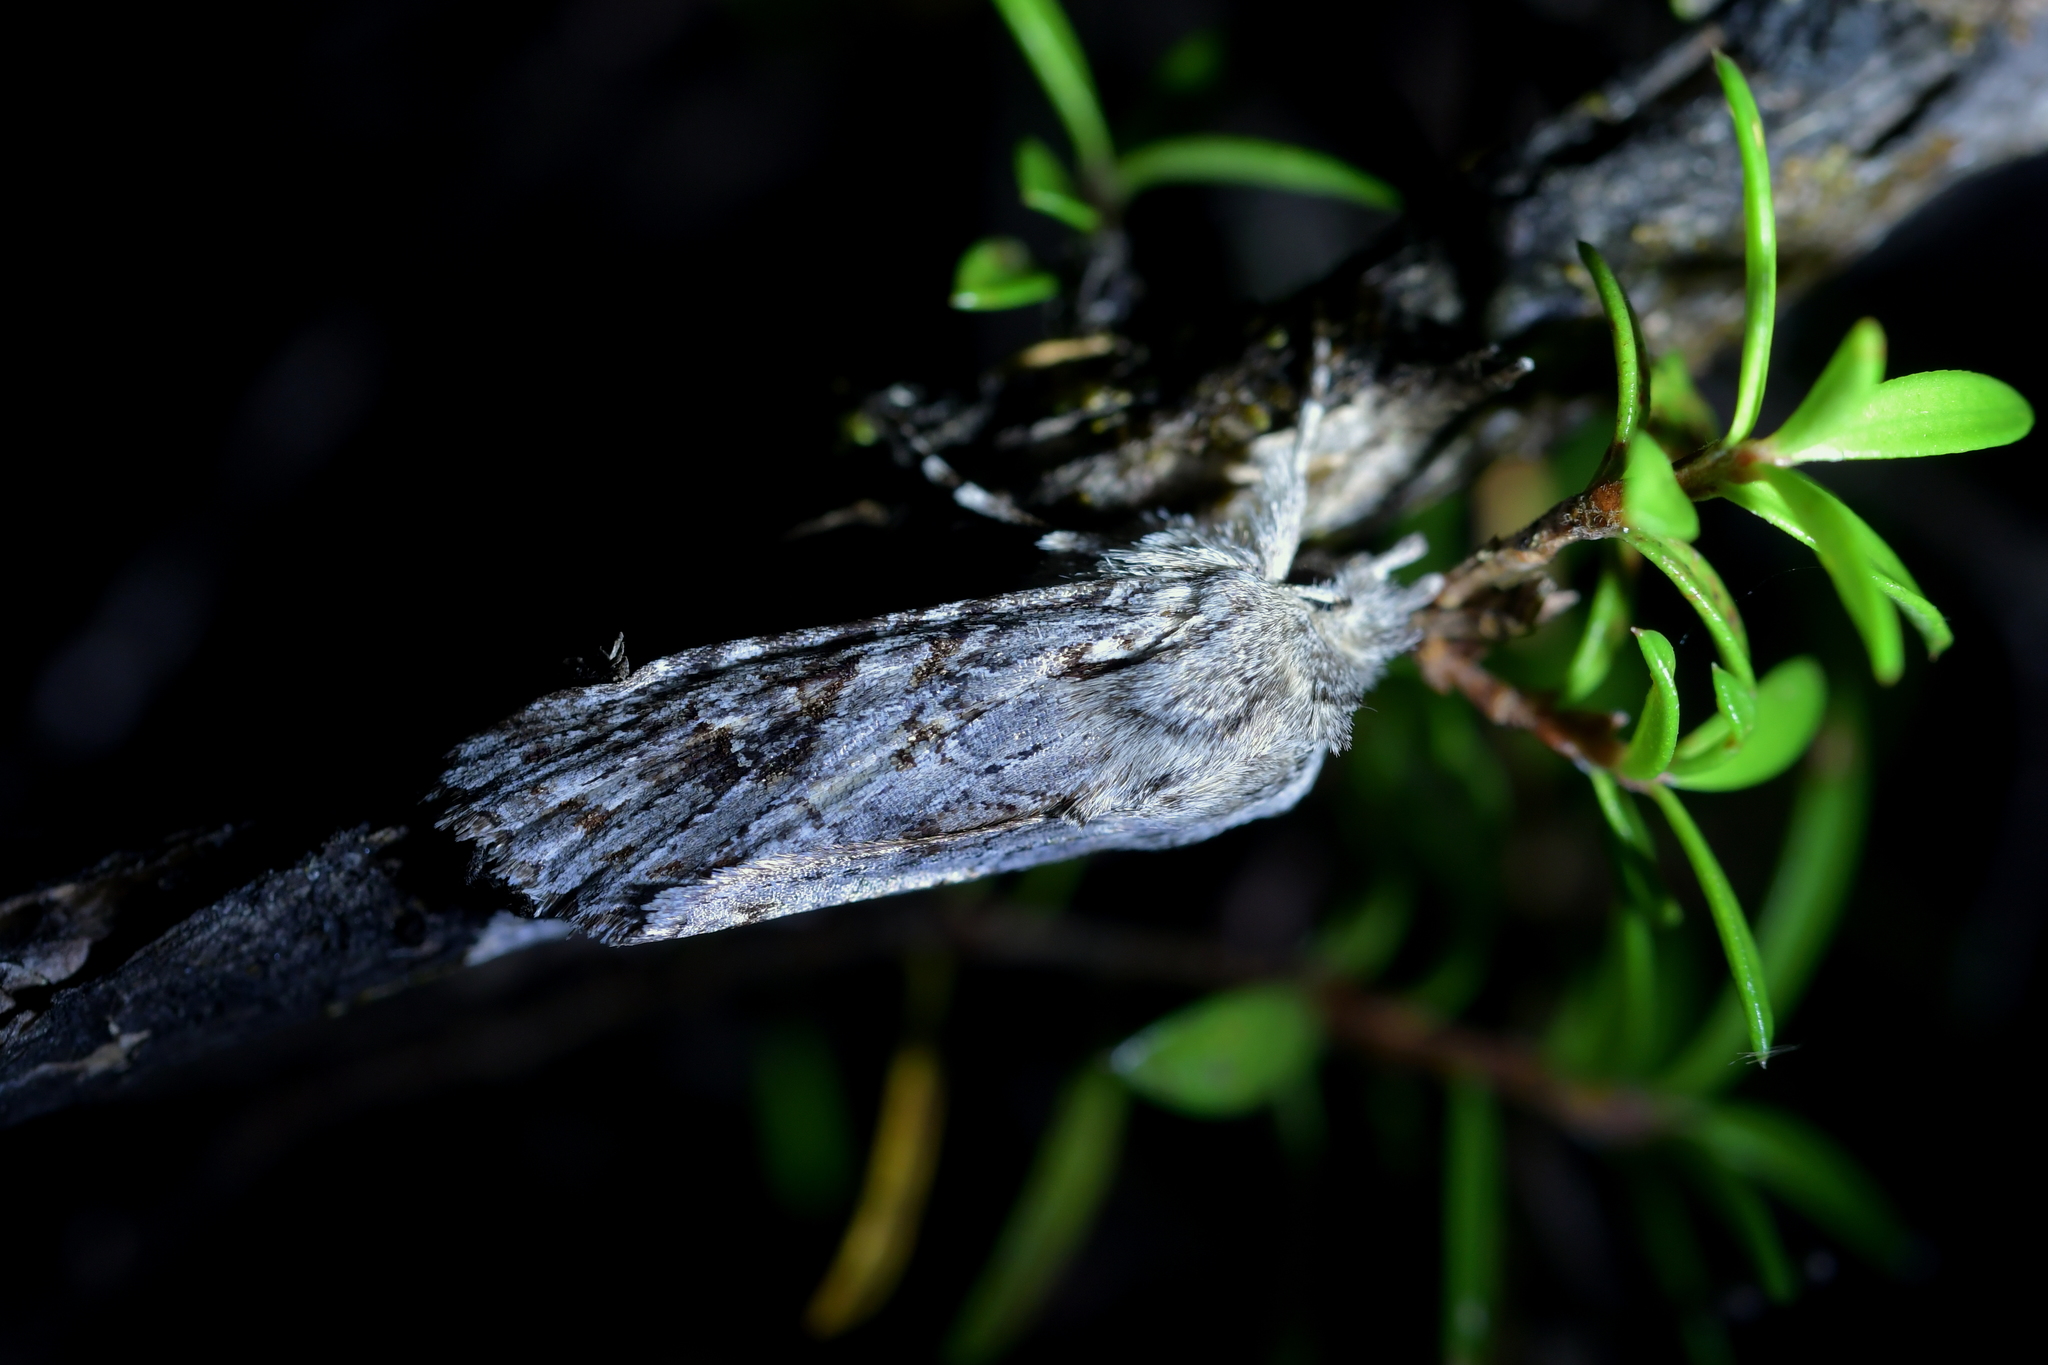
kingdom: Animalia
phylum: Arthropoda
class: Insecta
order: Lepidoptera
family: Noctuidae
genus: Physetica
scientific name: Physetica longstaffii
